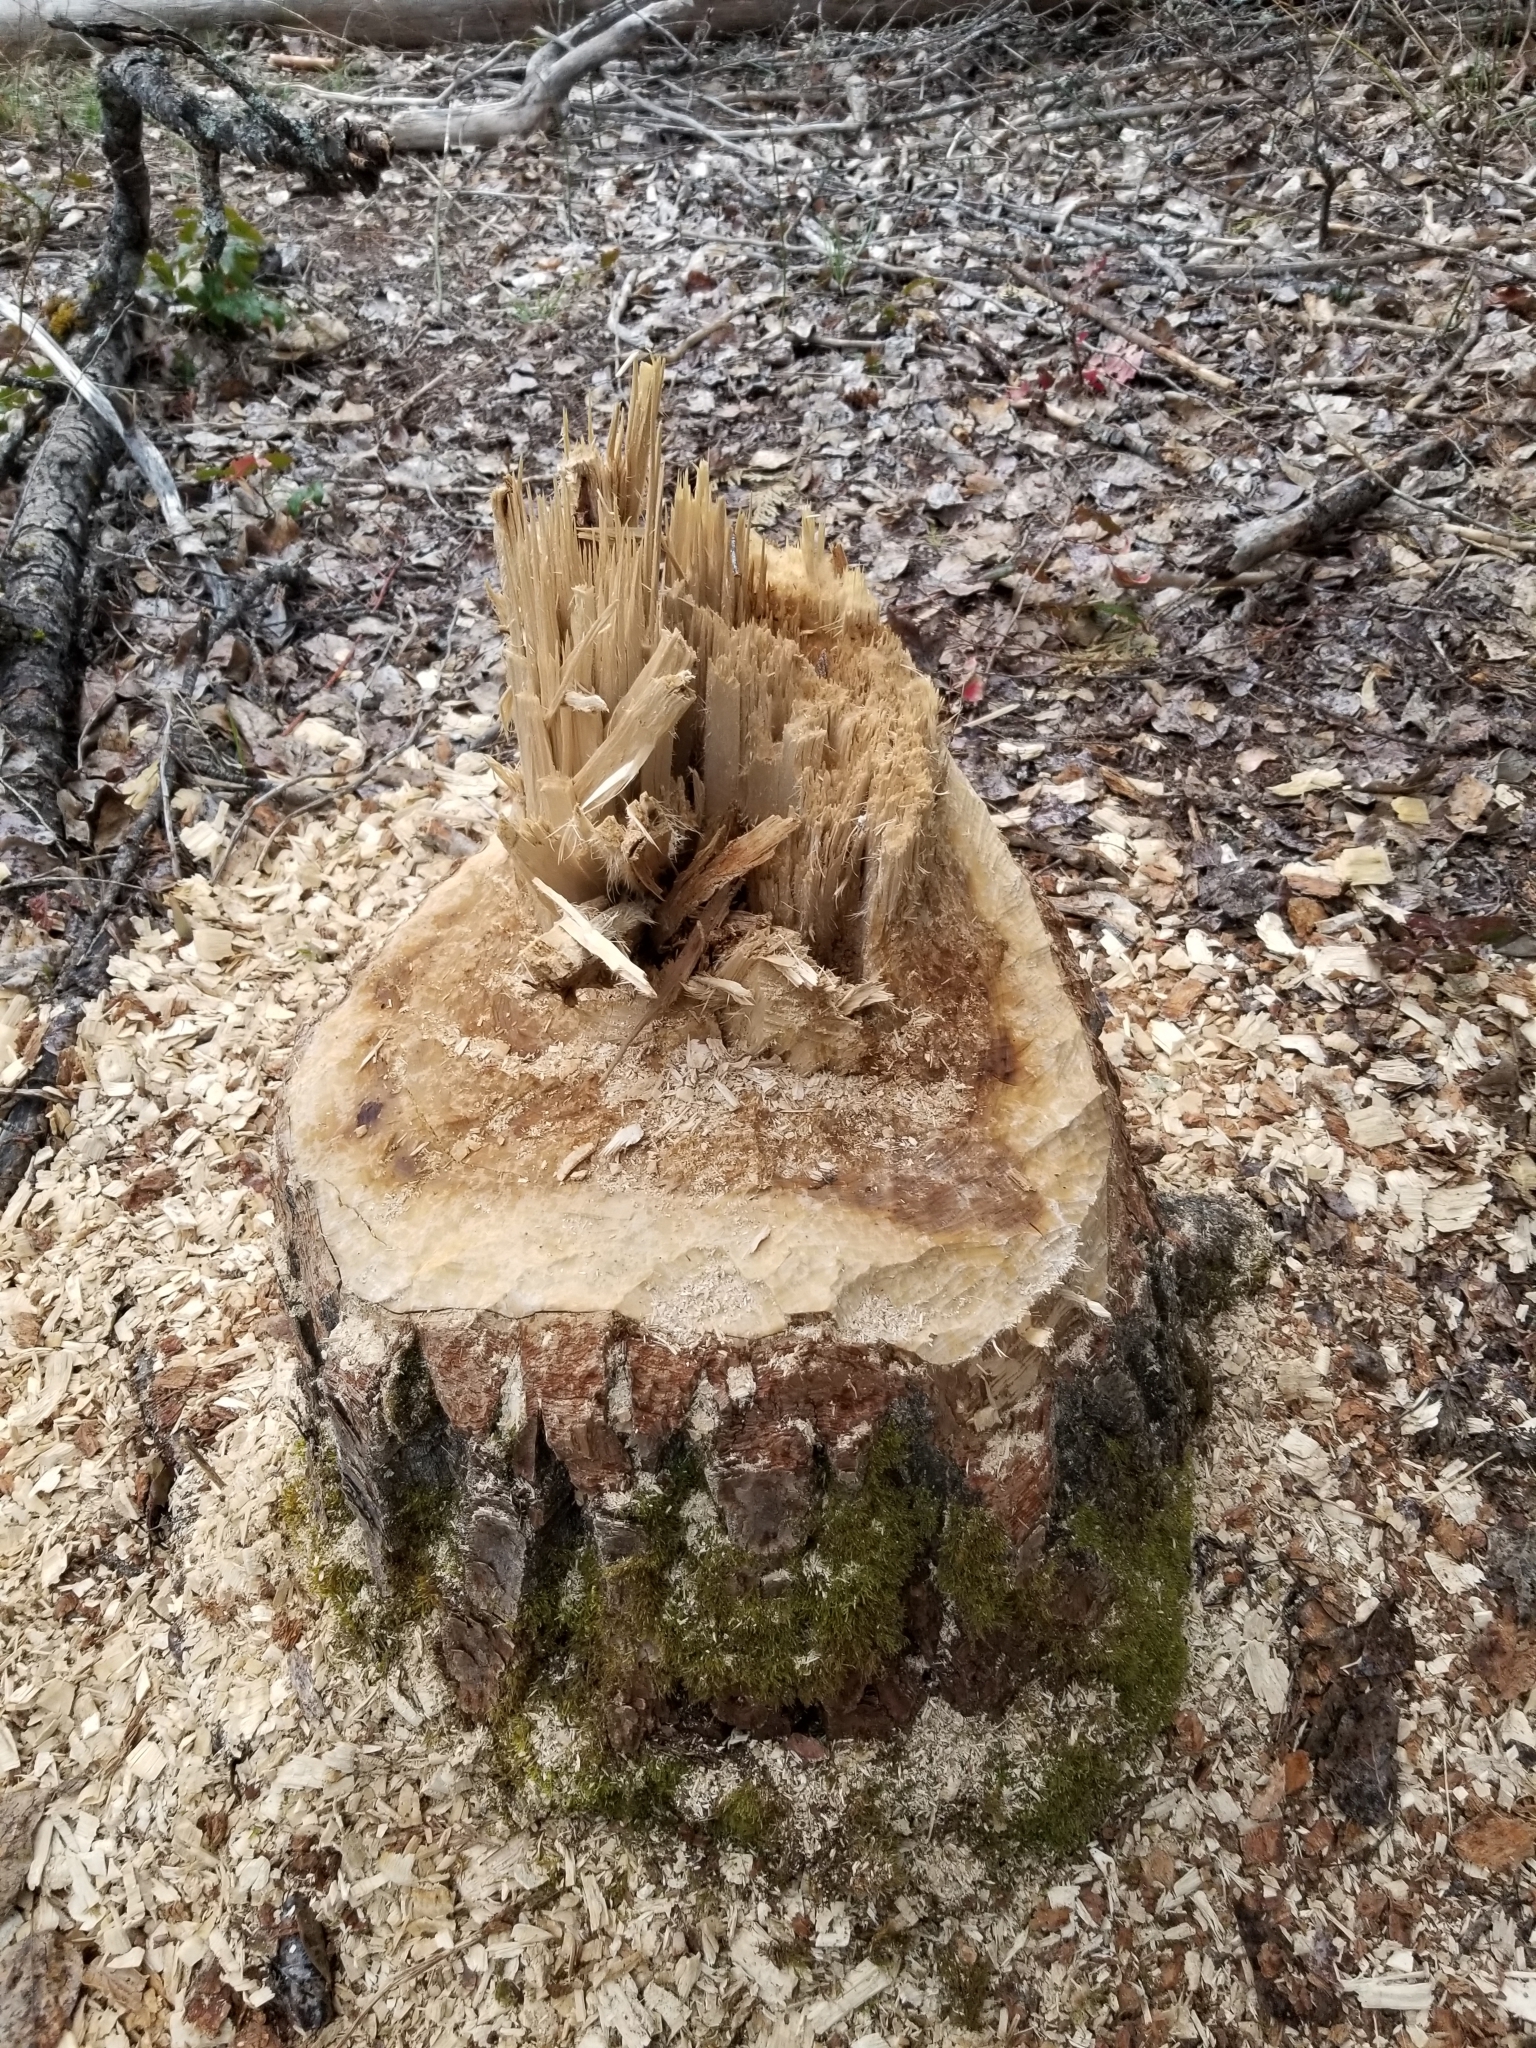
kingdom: Animalia
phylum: Chordata
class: Mammalia
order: Rodentia
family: Castoridae
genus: Castor
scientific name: Castor canadensis
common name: American beaver
